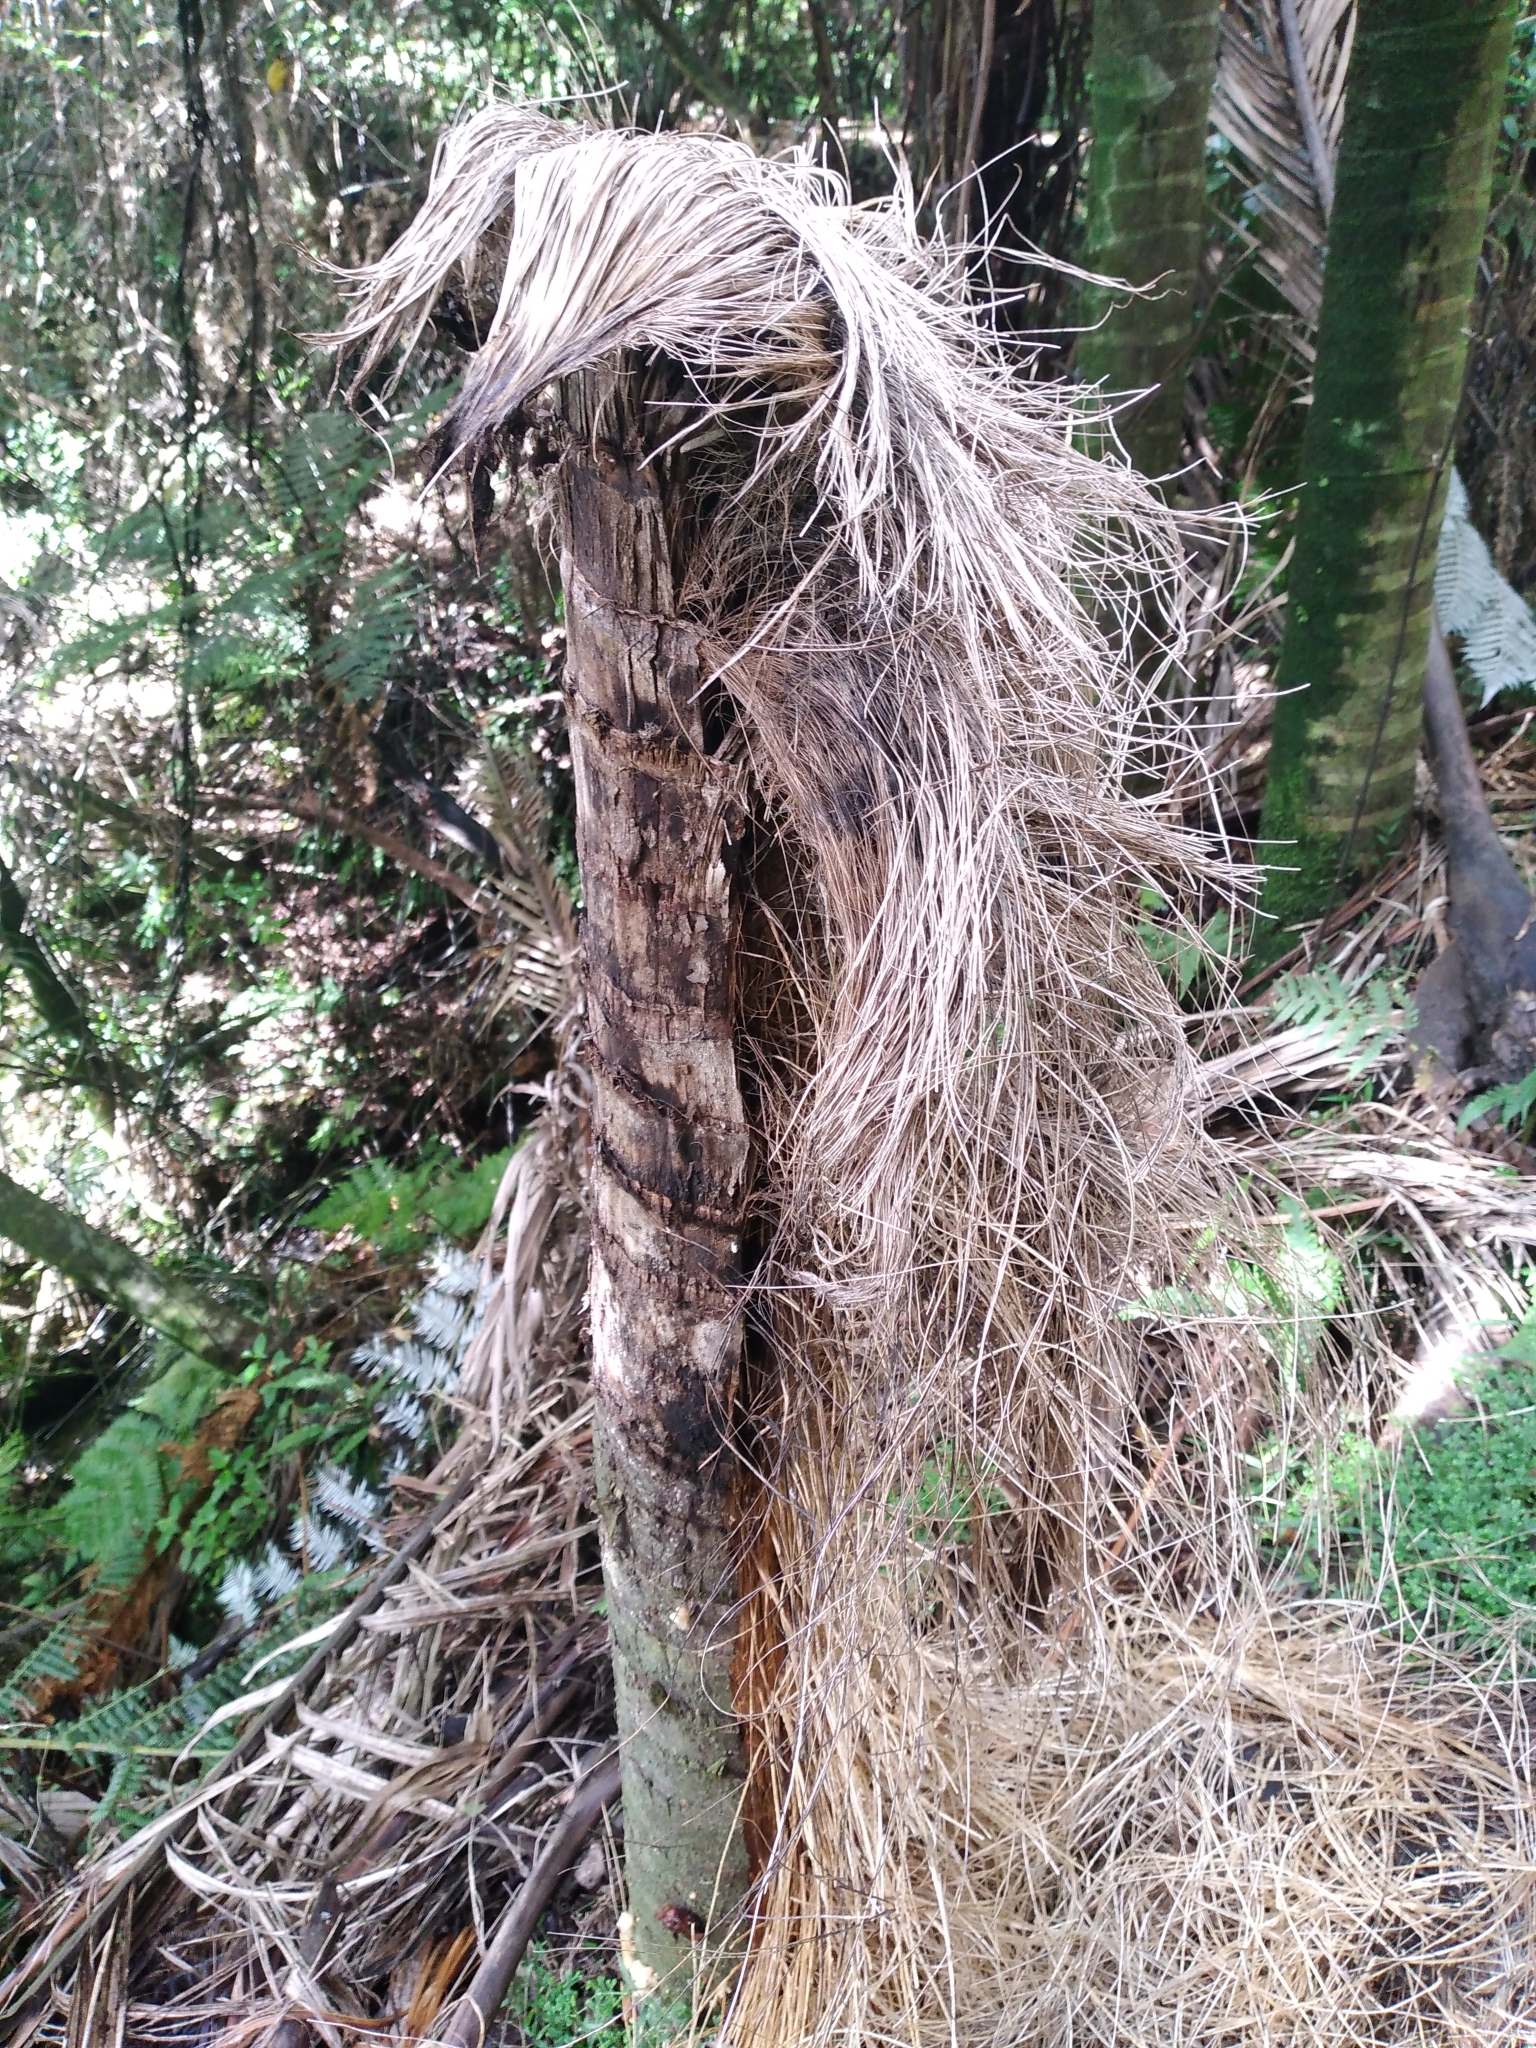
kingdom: Plantae
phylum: Tracheophyta
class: Liliopsida
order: Arecales
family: Arecaceae
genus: Rhopalostylis
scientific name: Rhopalostylis sapida
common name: Feather-duster palm
